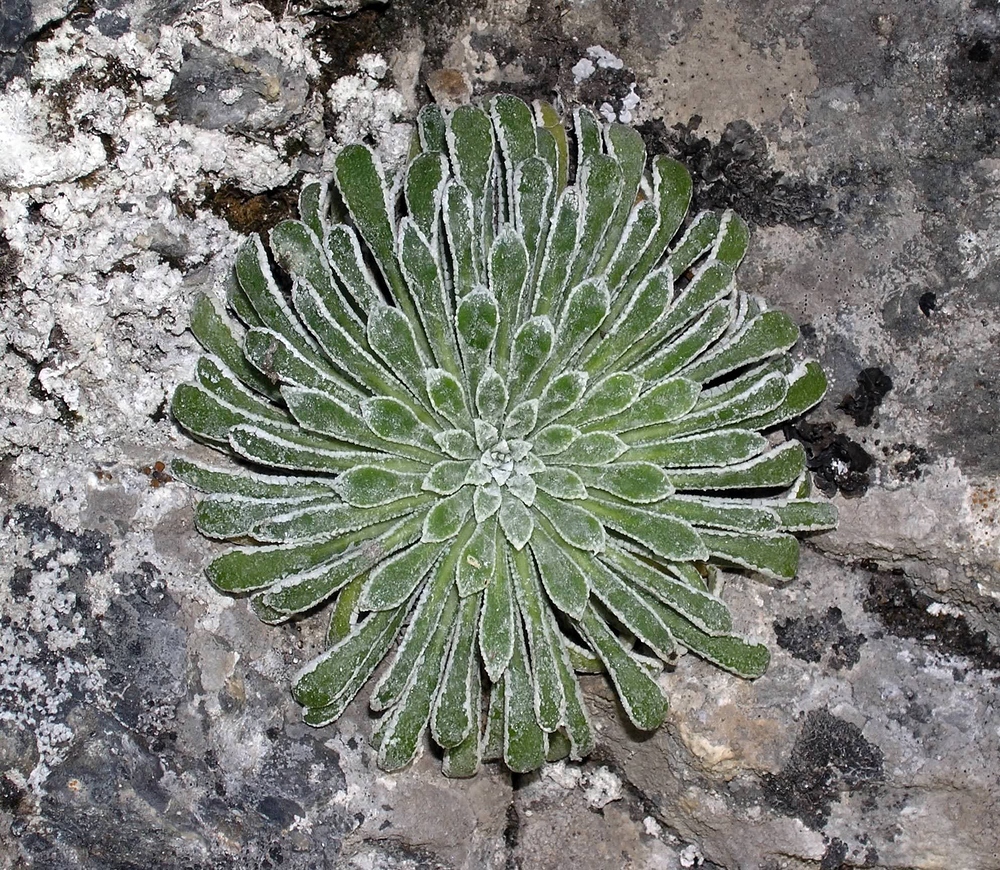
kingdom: Plantae
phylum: Tracheophyta
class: Magnoliopsida
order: Saxifragales
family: Saxifragaceae
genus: Saxifraga
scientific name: Saxifraga longifolia
